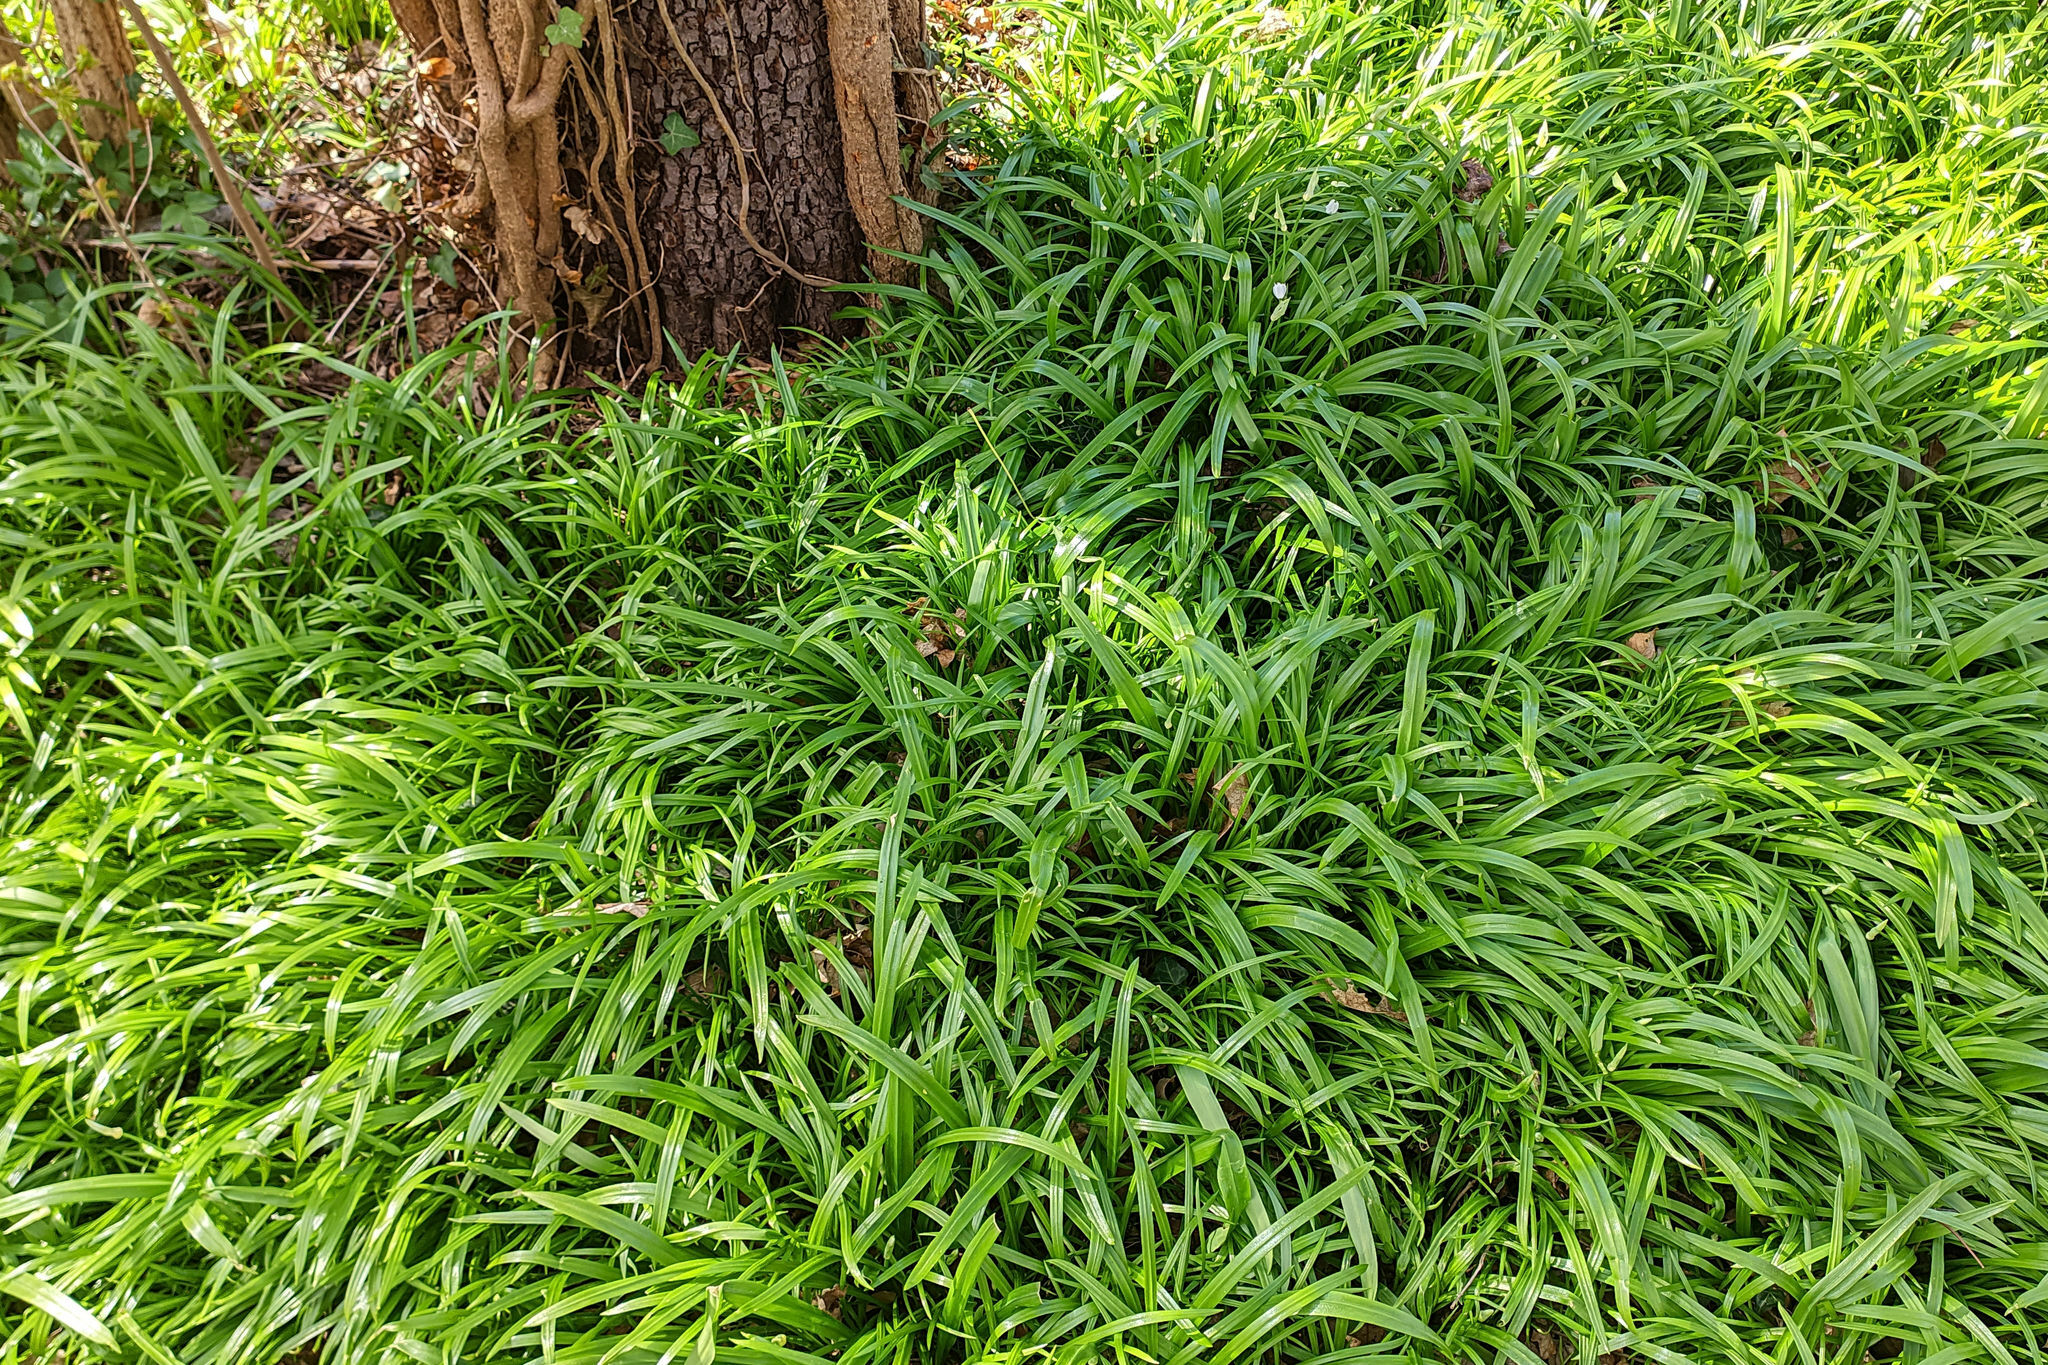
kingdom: Plantae
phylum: Tracheophyta
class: Liliopsida
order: Asparagales
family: Amaryllidaceae
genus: Allium
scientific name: Allium paradoxum
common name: Few-flowered garlic
